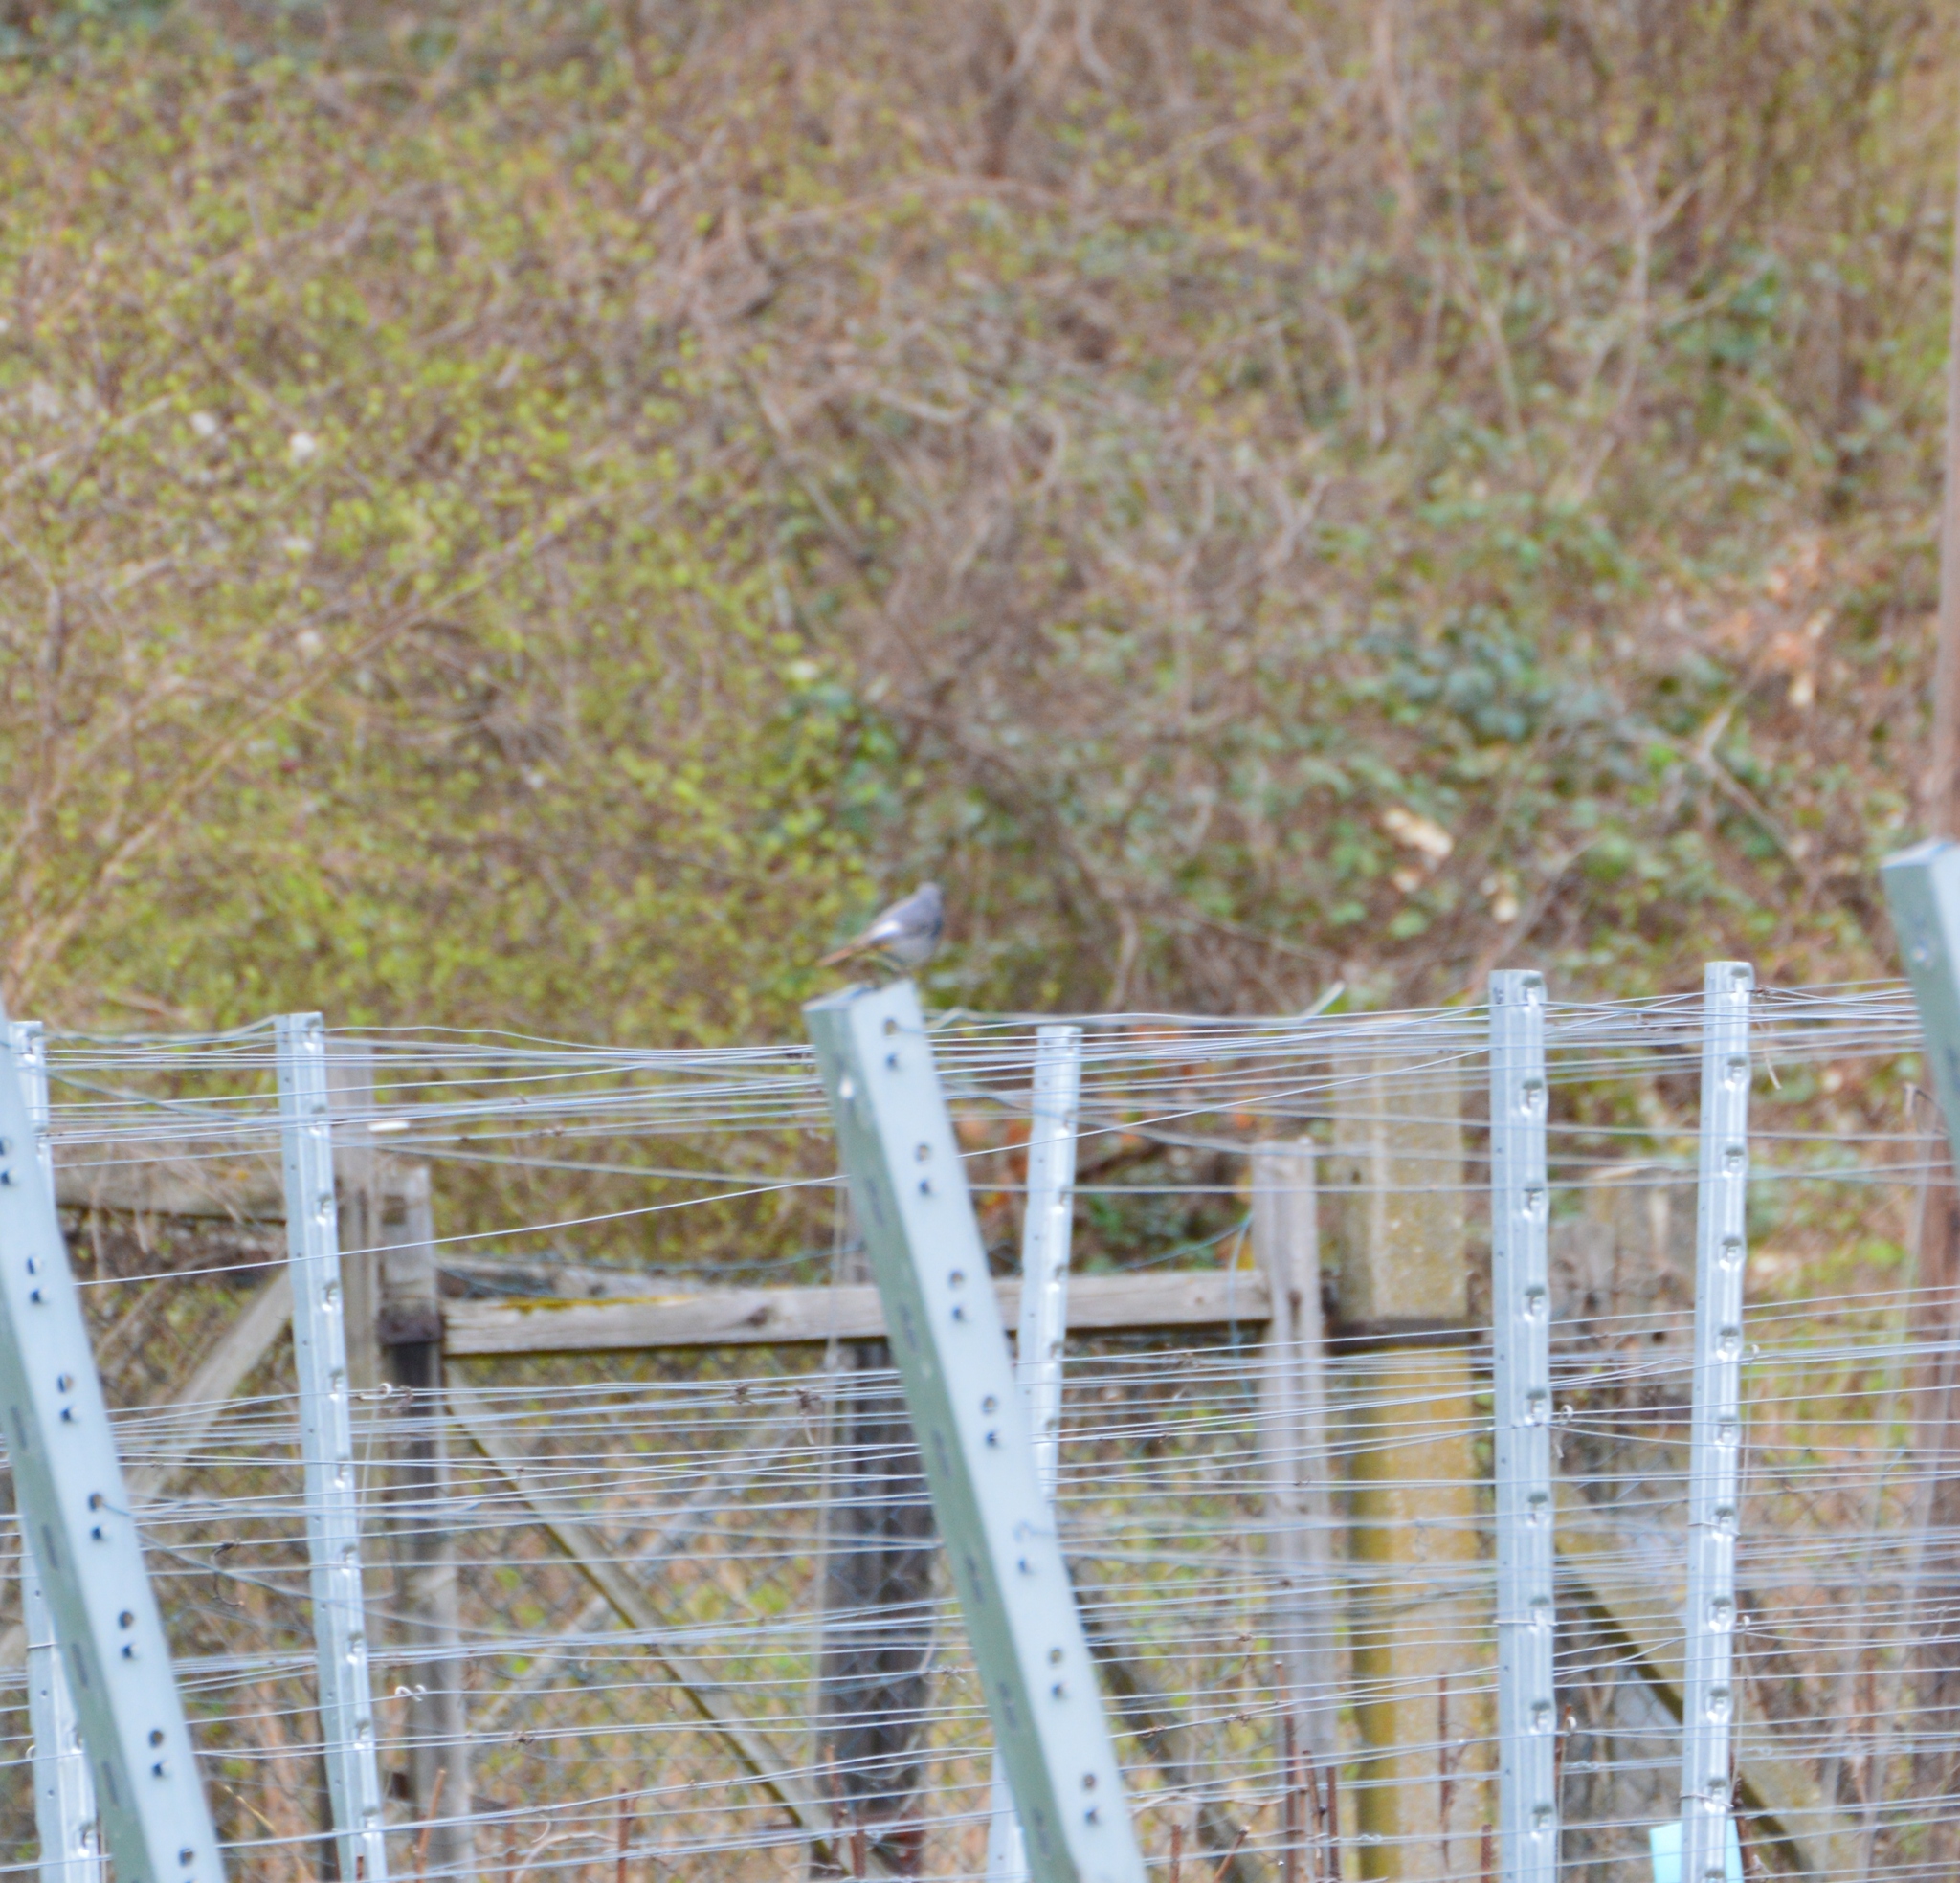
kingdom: Animalia
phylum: Chordata
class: Aves
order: Passeriformes
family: Muscicapidae
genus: Phoenicurus
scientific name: Phoenicurus ochruros
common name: Black redstart
